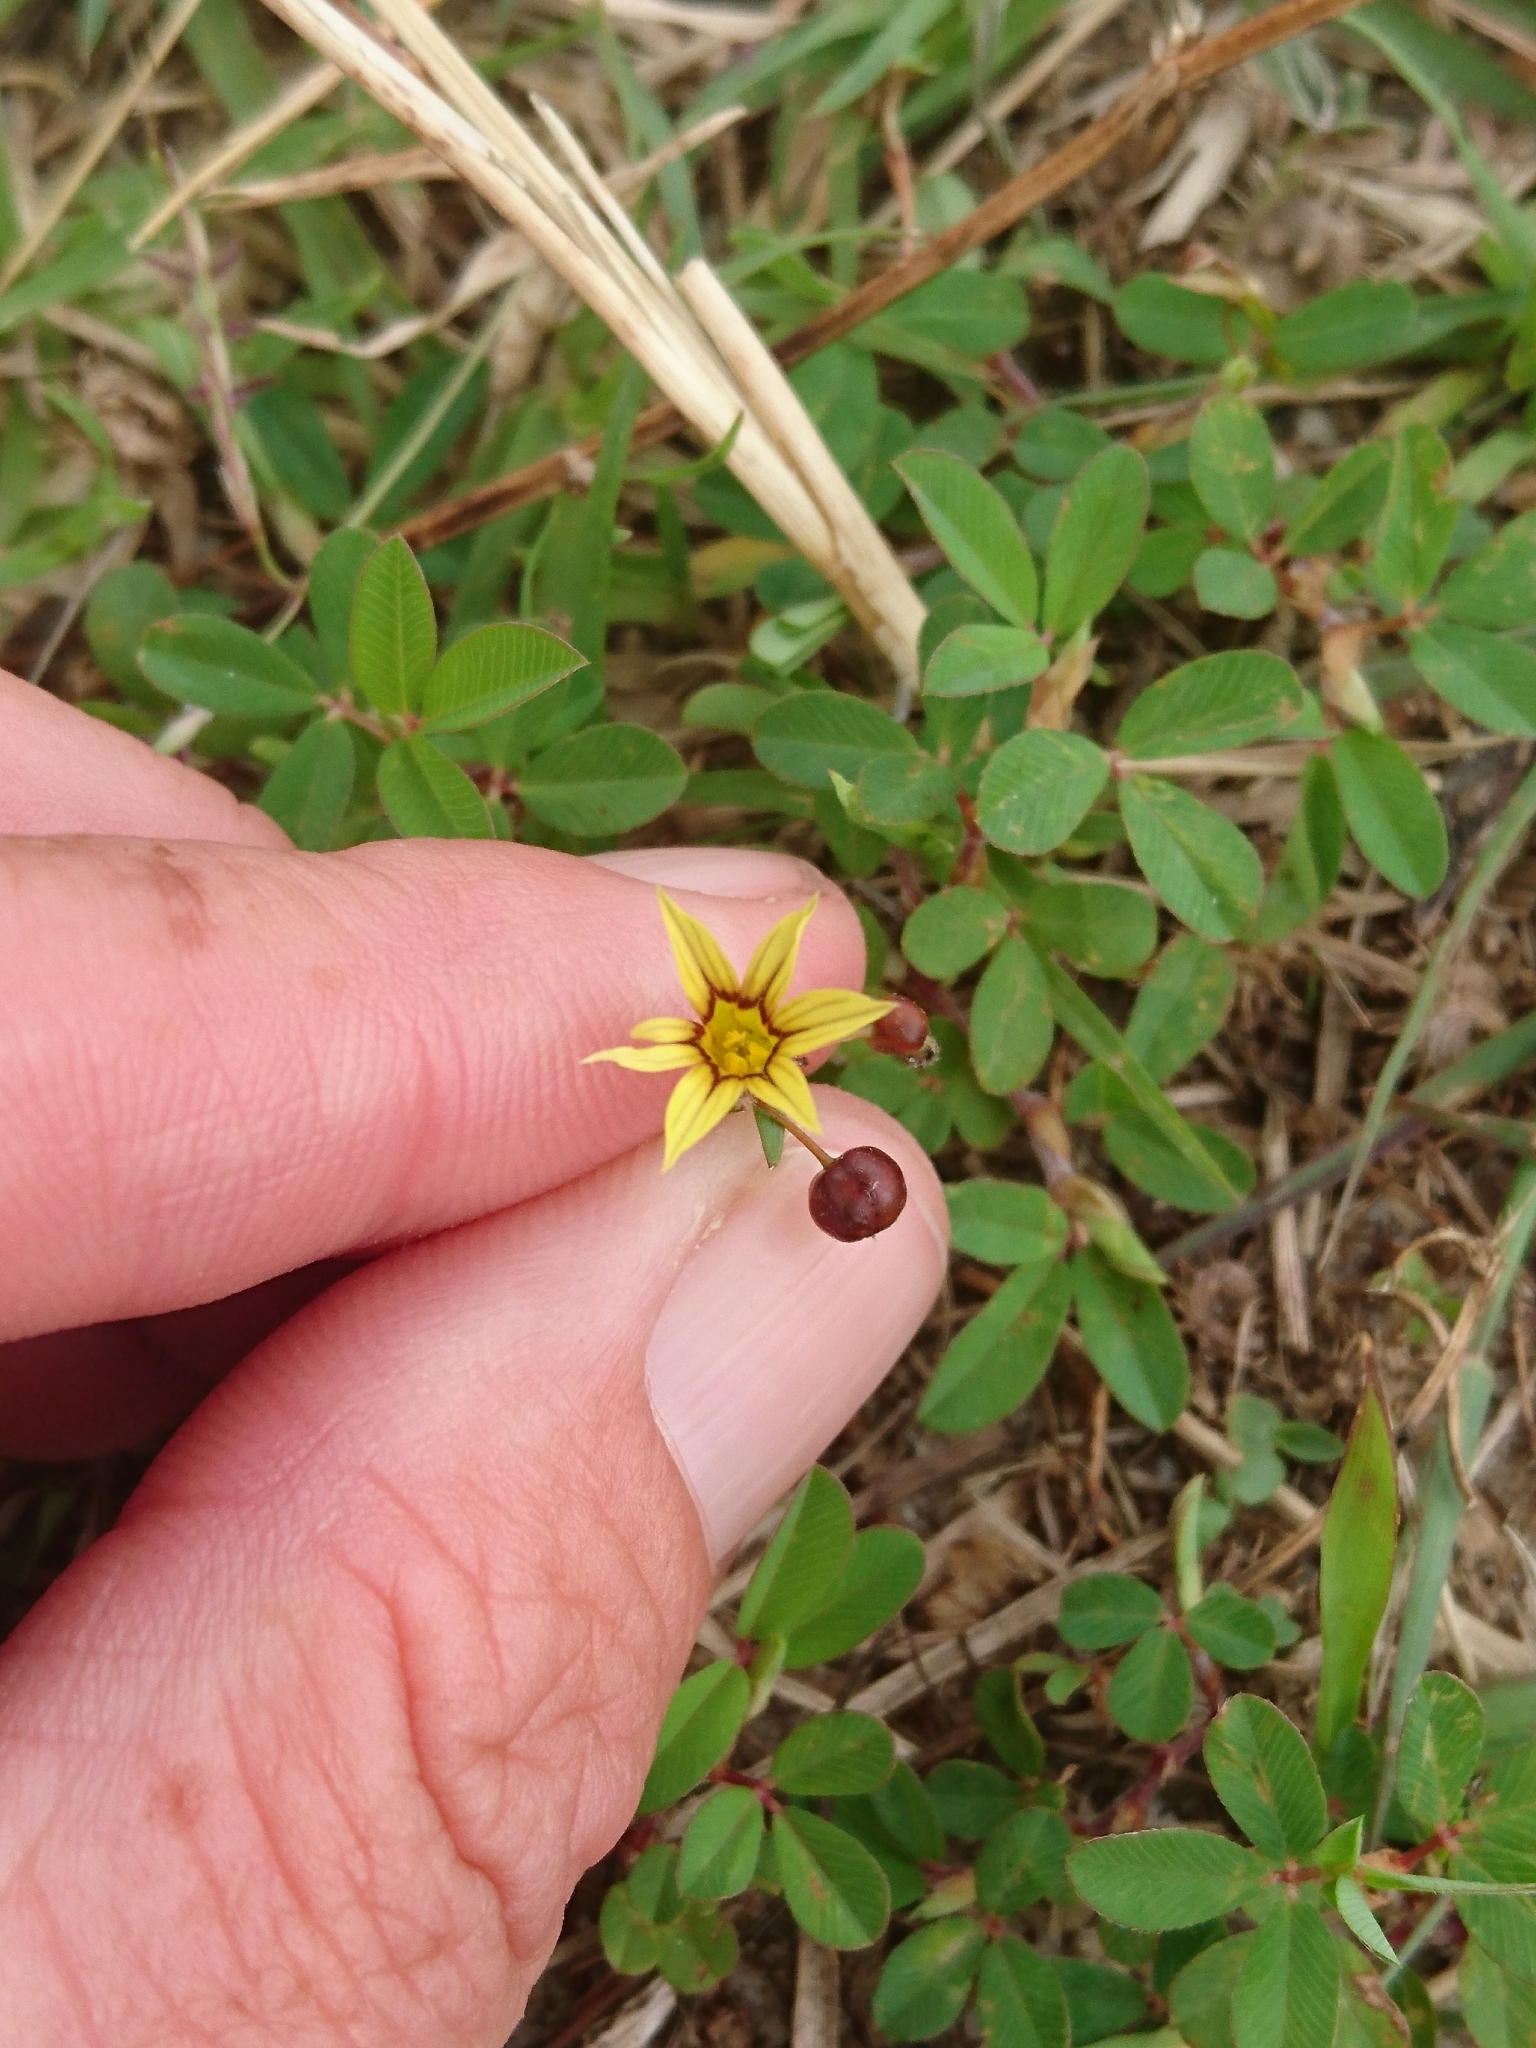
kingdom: Plantae
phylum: Tracheophyta
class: Liliopsida
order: Asparagales
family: Iridaceae
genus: Sisyrinchium
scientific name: Sisyrinchium micranthum
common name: Bermuda pigroot
